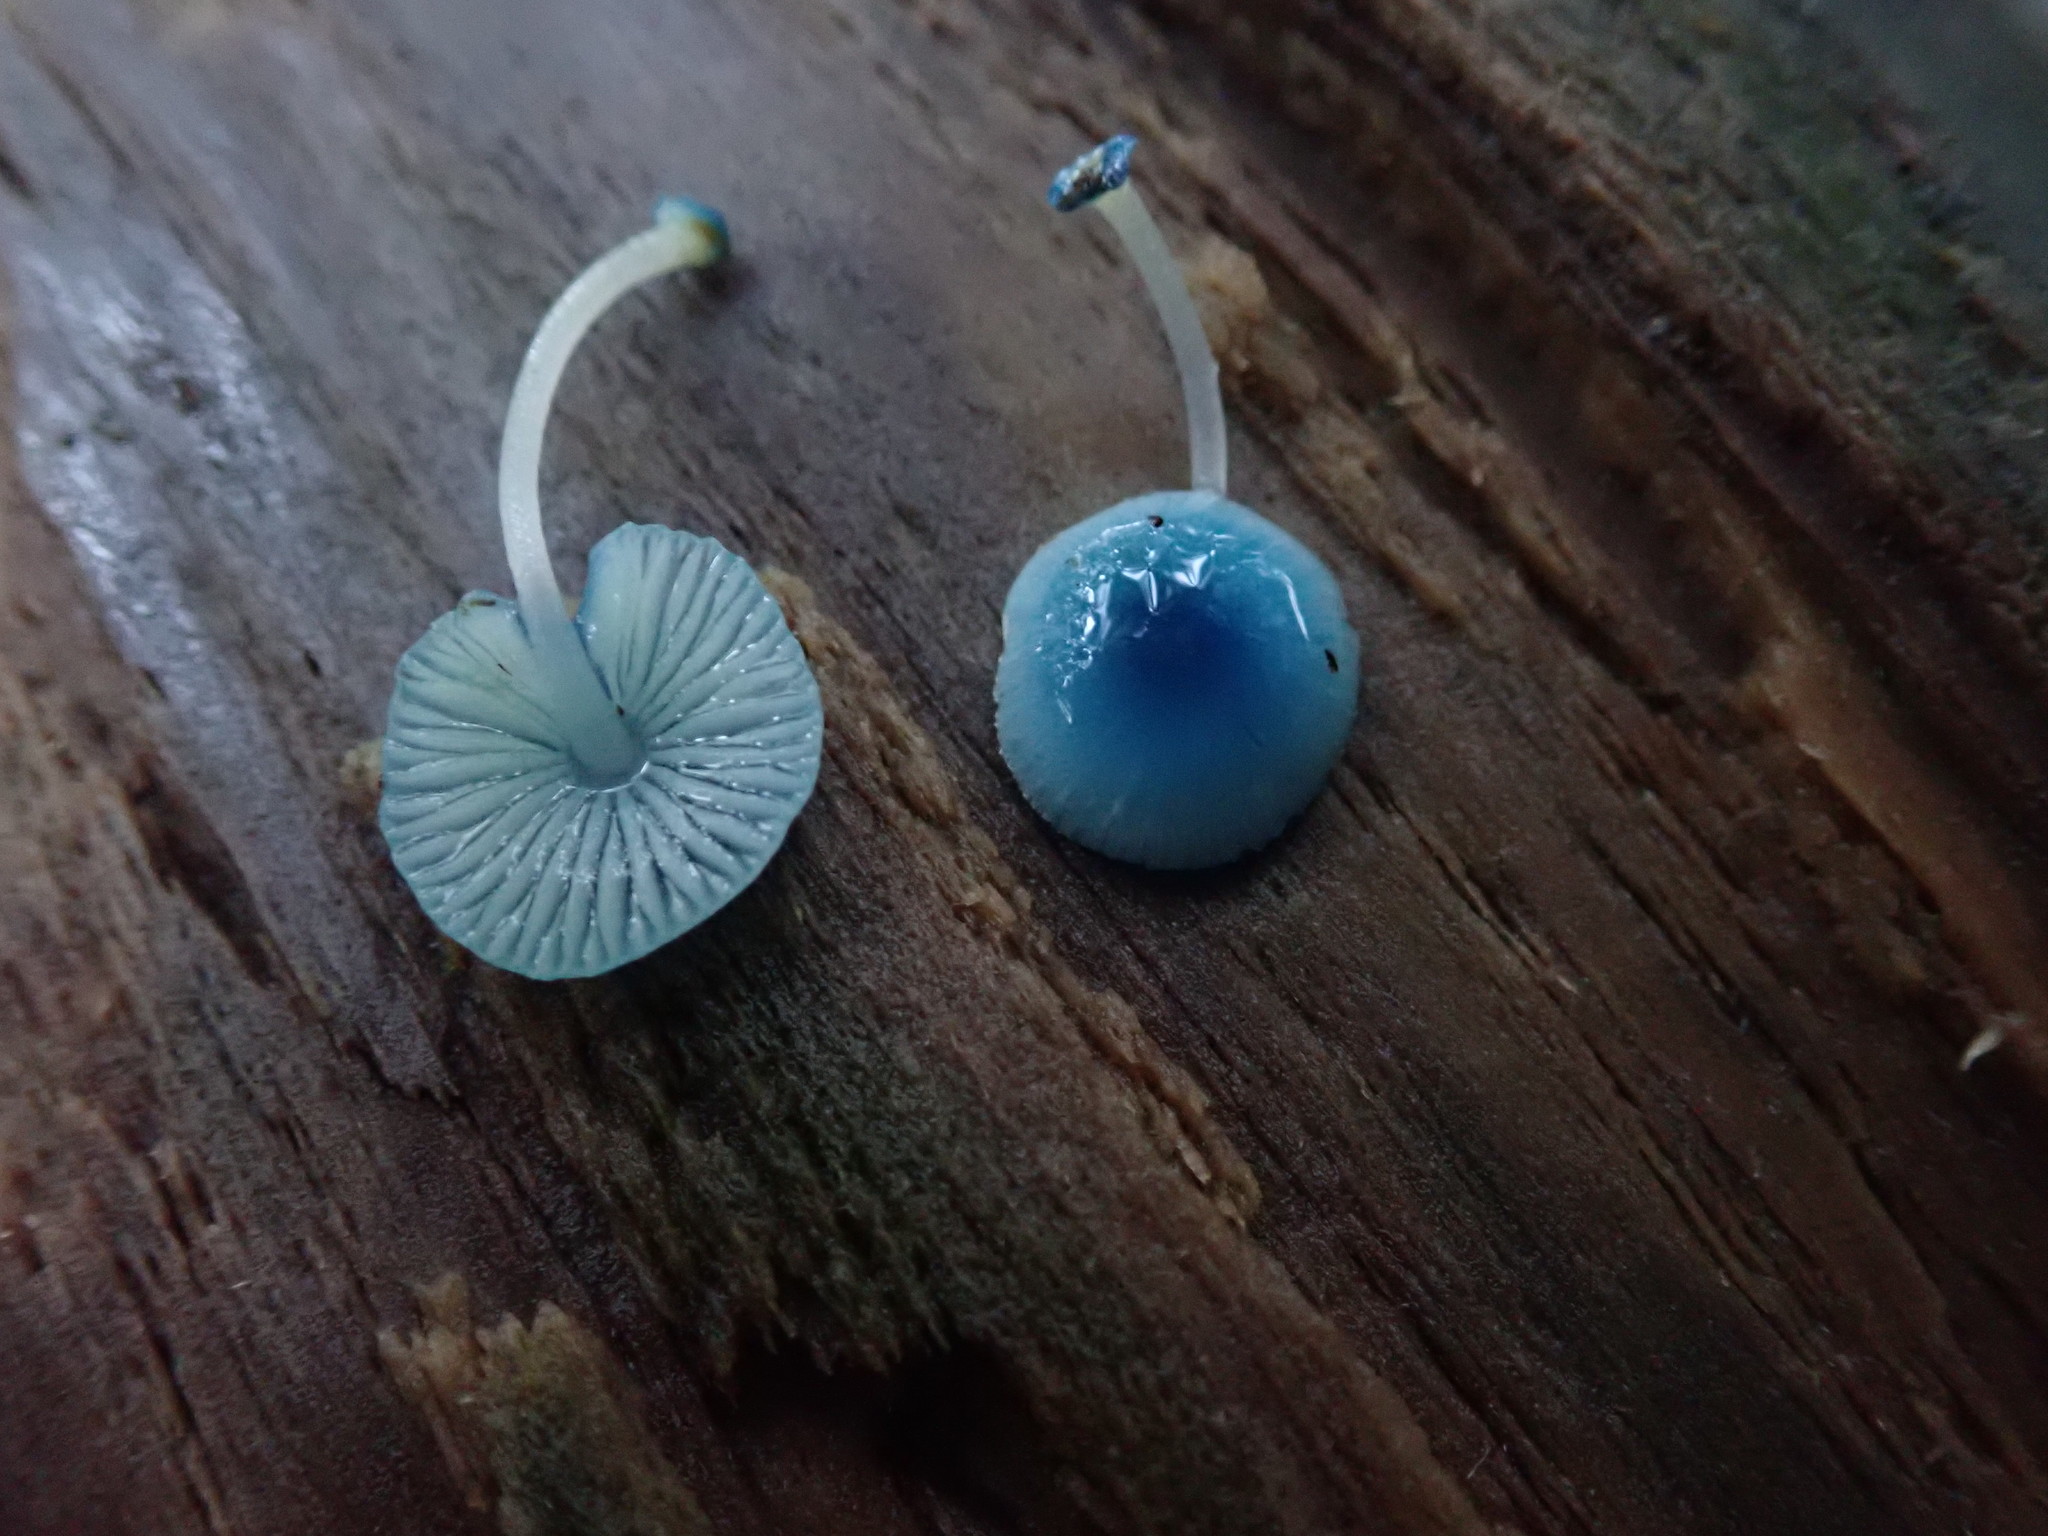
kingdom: Fungi
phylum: Basidiomycota
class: Agaricomycetes
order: Agaricales
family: Mycenaceae
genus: Mycena
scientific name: Mycena interrupta
